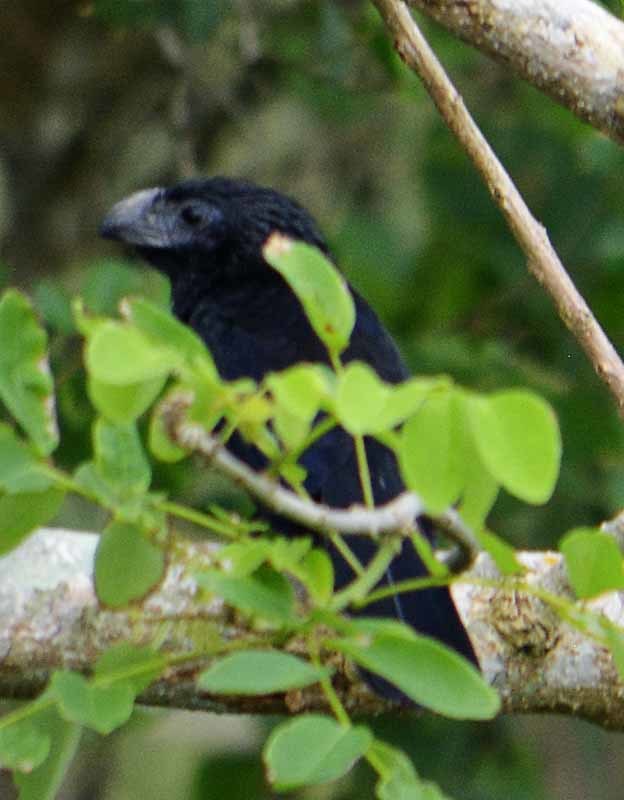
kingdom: Animalia
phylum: Chordata
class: Aves
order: Cuculiformes
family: Cuculidae
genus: Crotophaga
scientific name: Crotophaga sulcirostris
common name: Groove-billed ani
